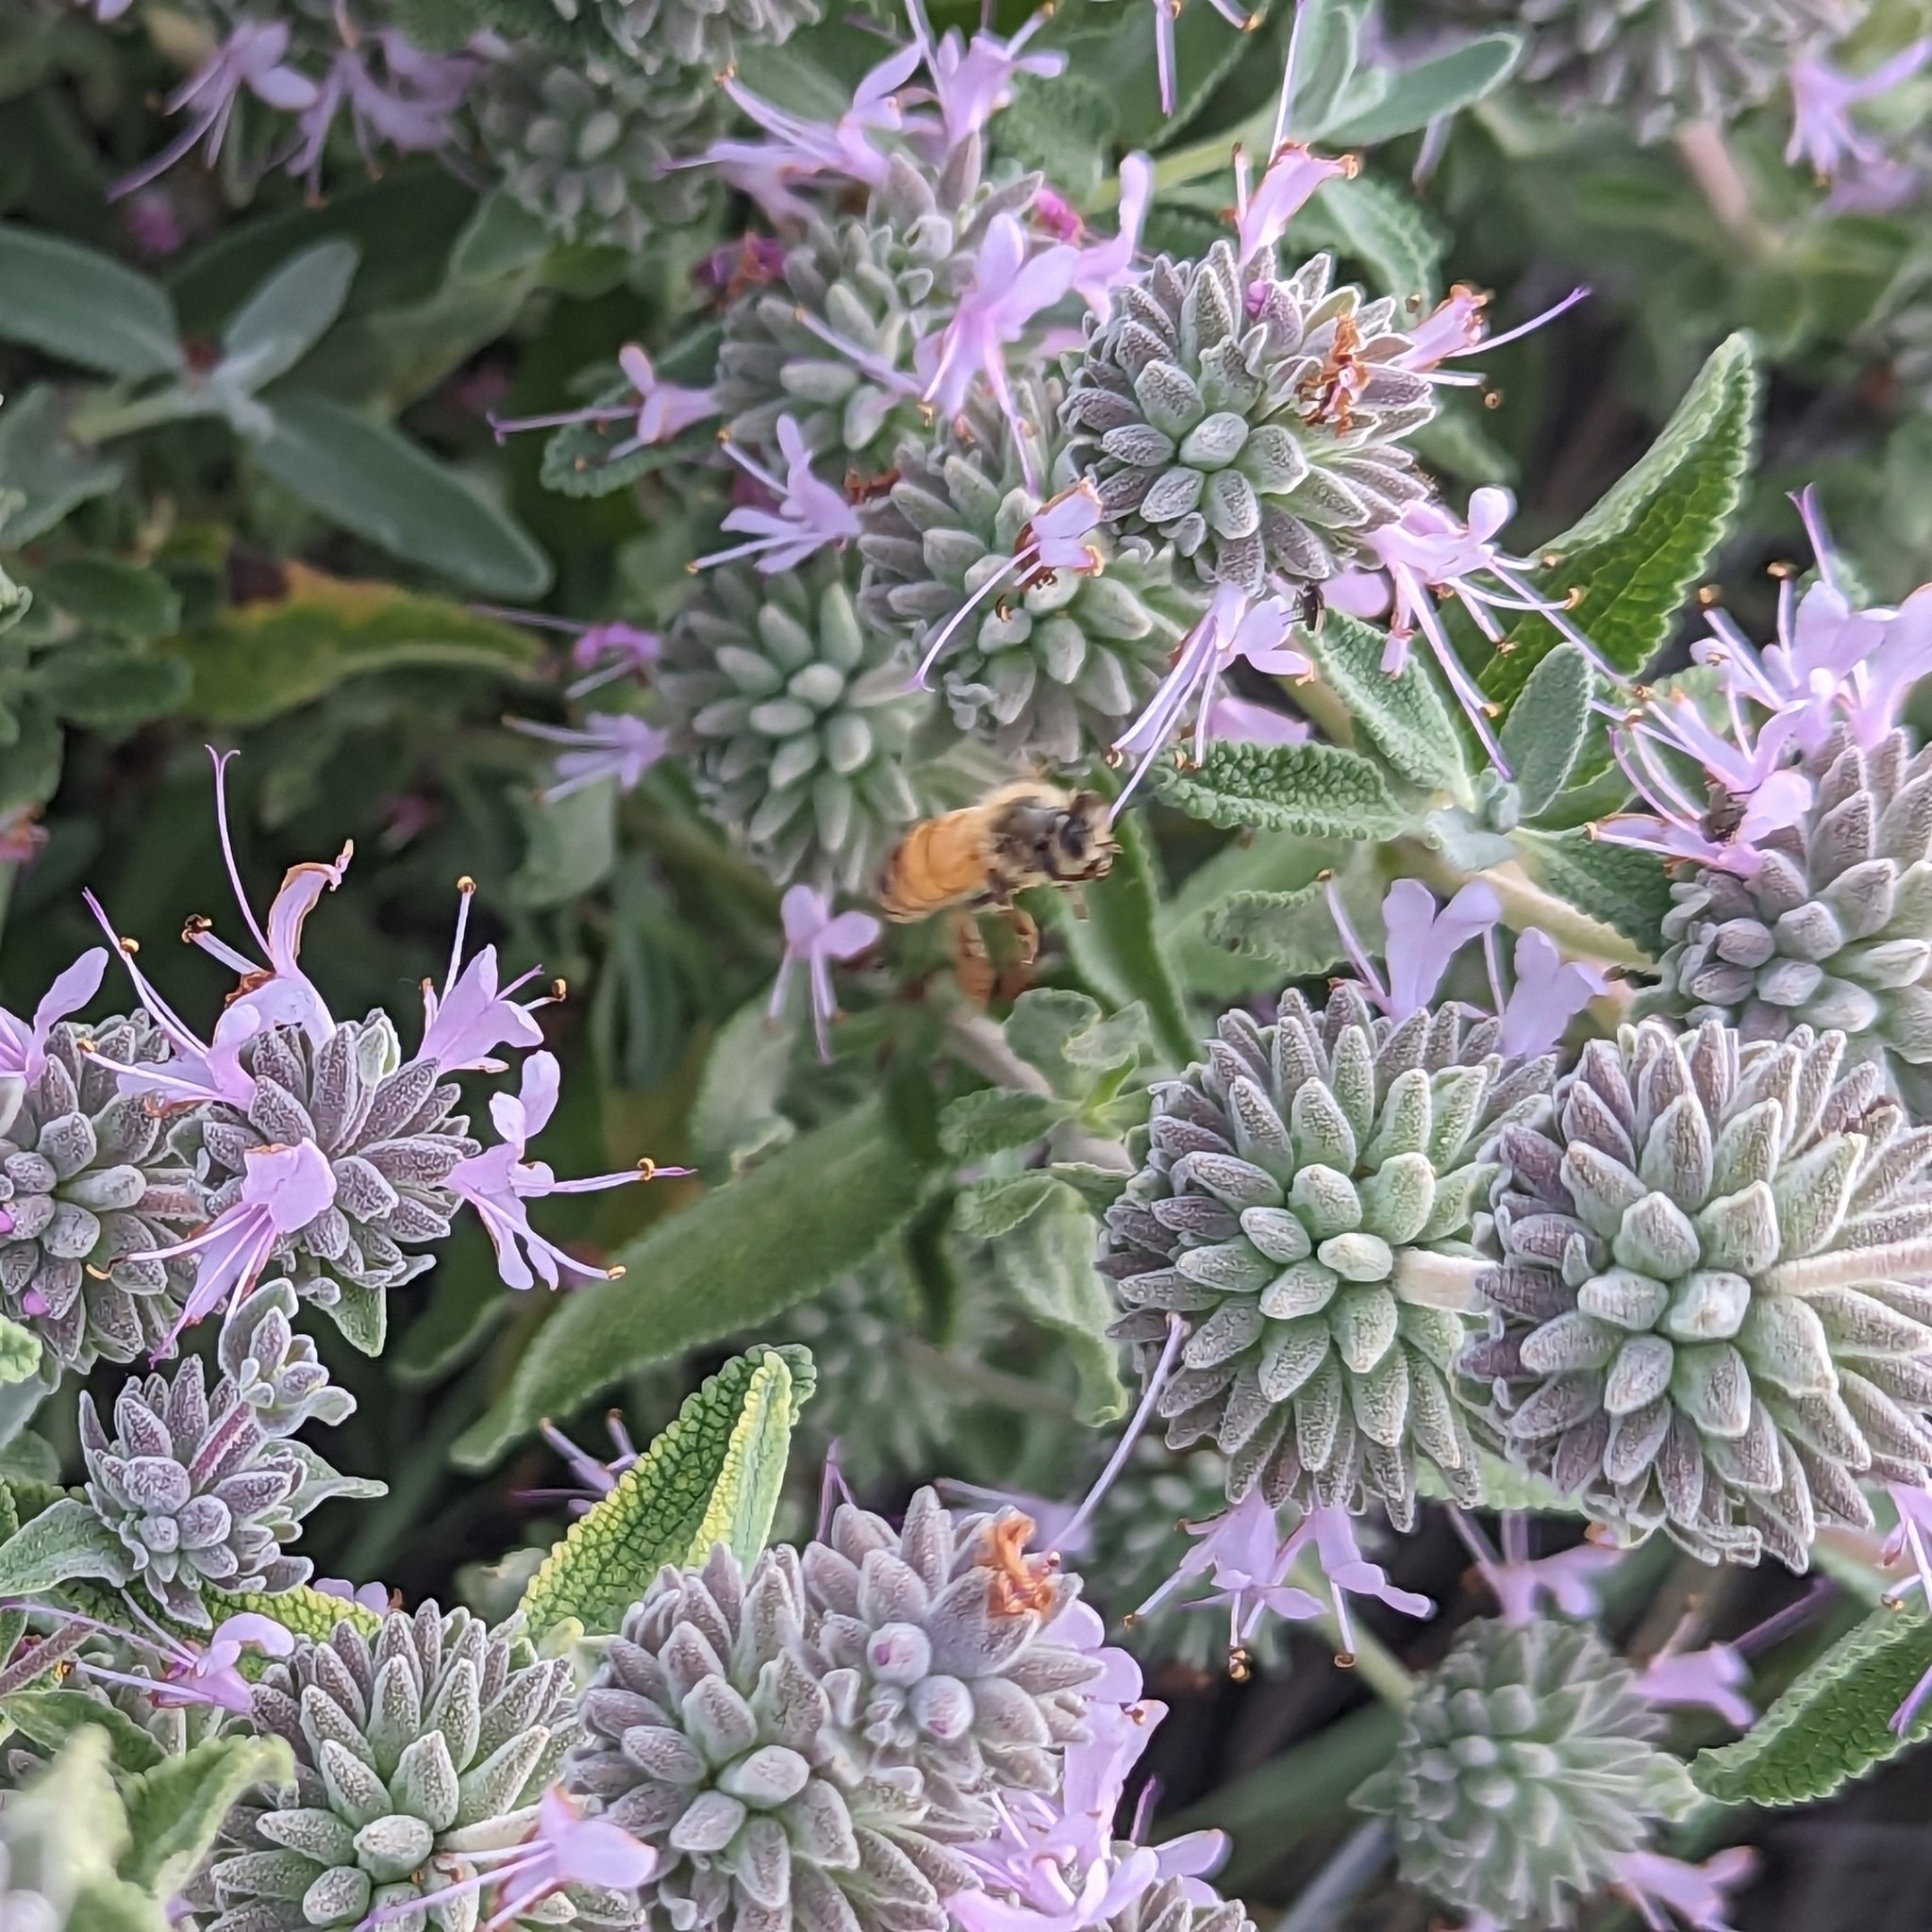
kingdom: Animalia
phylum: Arthropoda
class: Insecta
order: Hymenoptera
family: Apidae
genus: Apis
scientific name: Apis mellifera
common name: Honey bee
